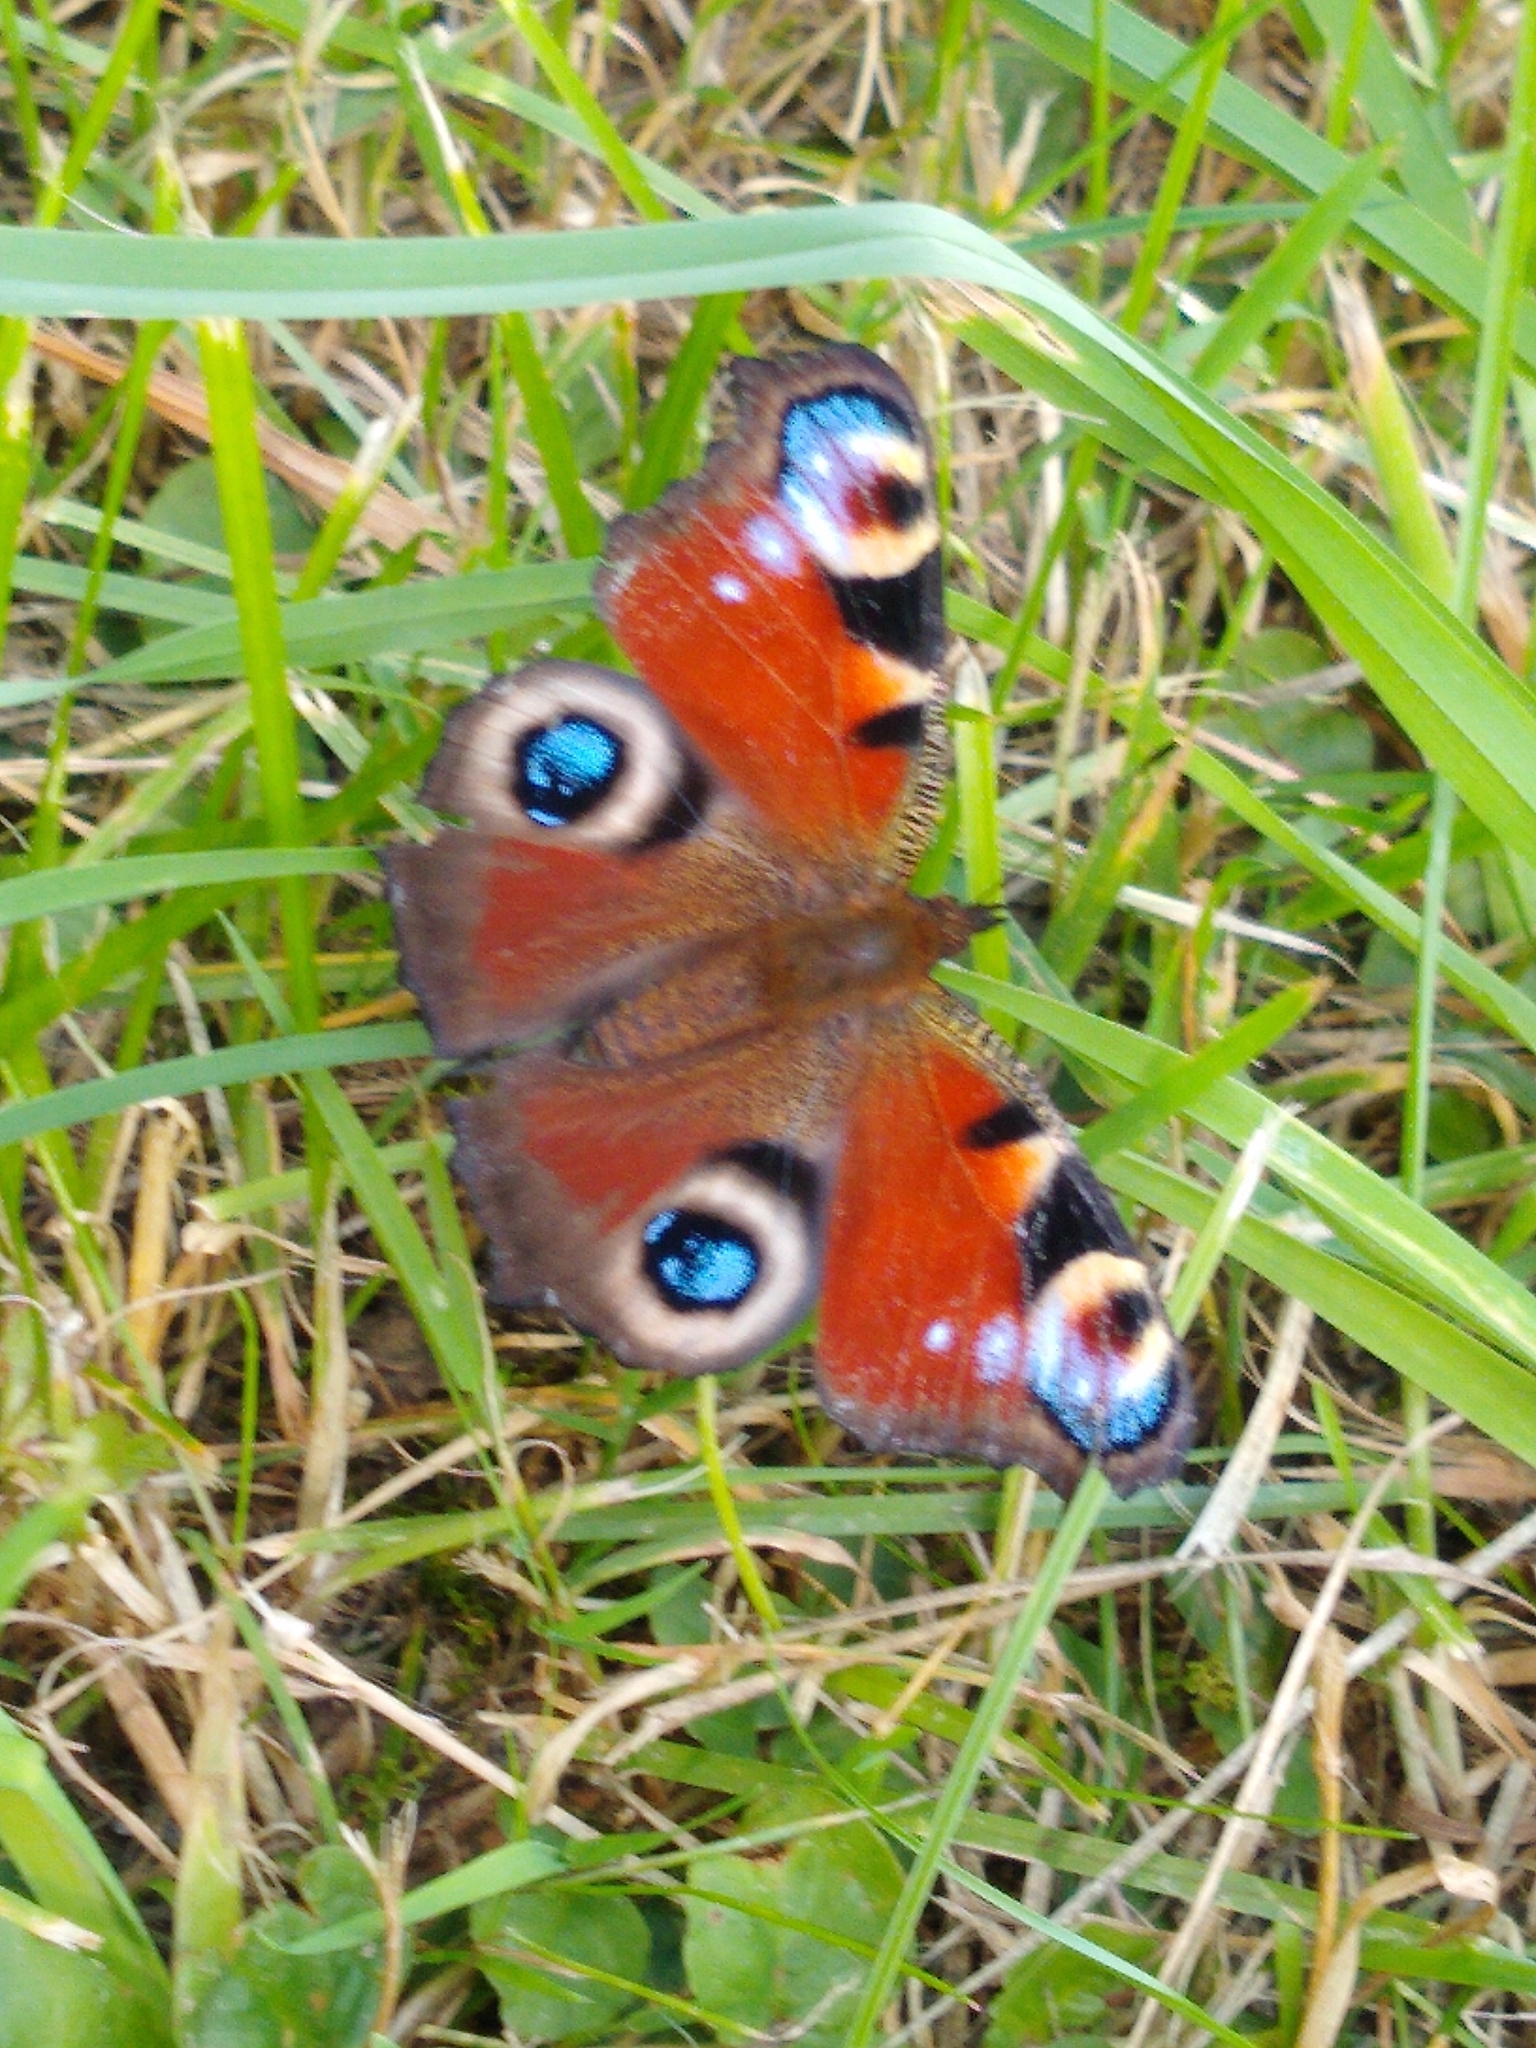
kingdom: Animalia
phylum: Arthropoda
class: Insecta
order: Lepidoptera
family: Nymphalidae
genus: Aglais
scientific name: Aglais io
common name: Peacock
